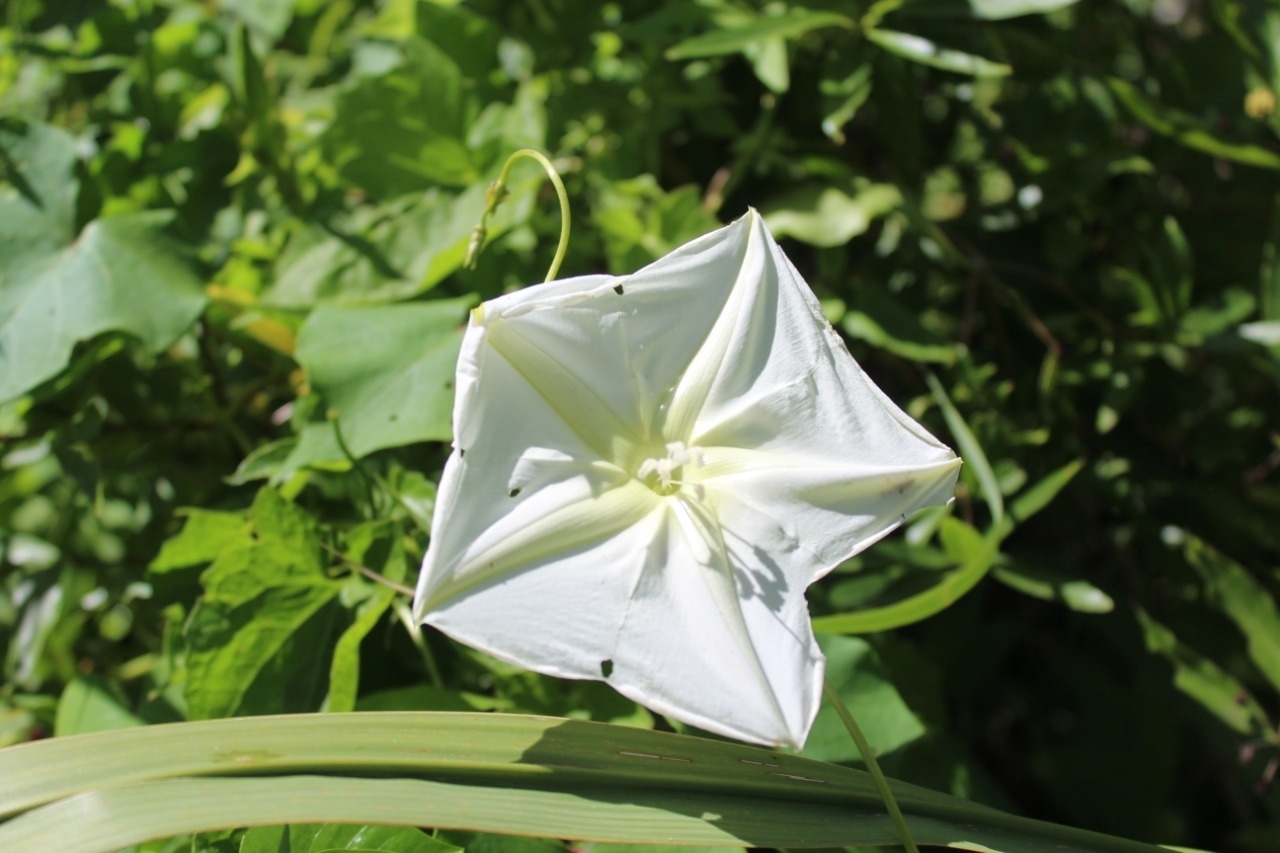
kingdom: Plantae
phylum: Tracheophyta
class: Magnoliopsida
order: Solanales
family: Convolvulaceae
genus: Ipomoea
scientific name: Ipomoea alba
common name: Moonflower
